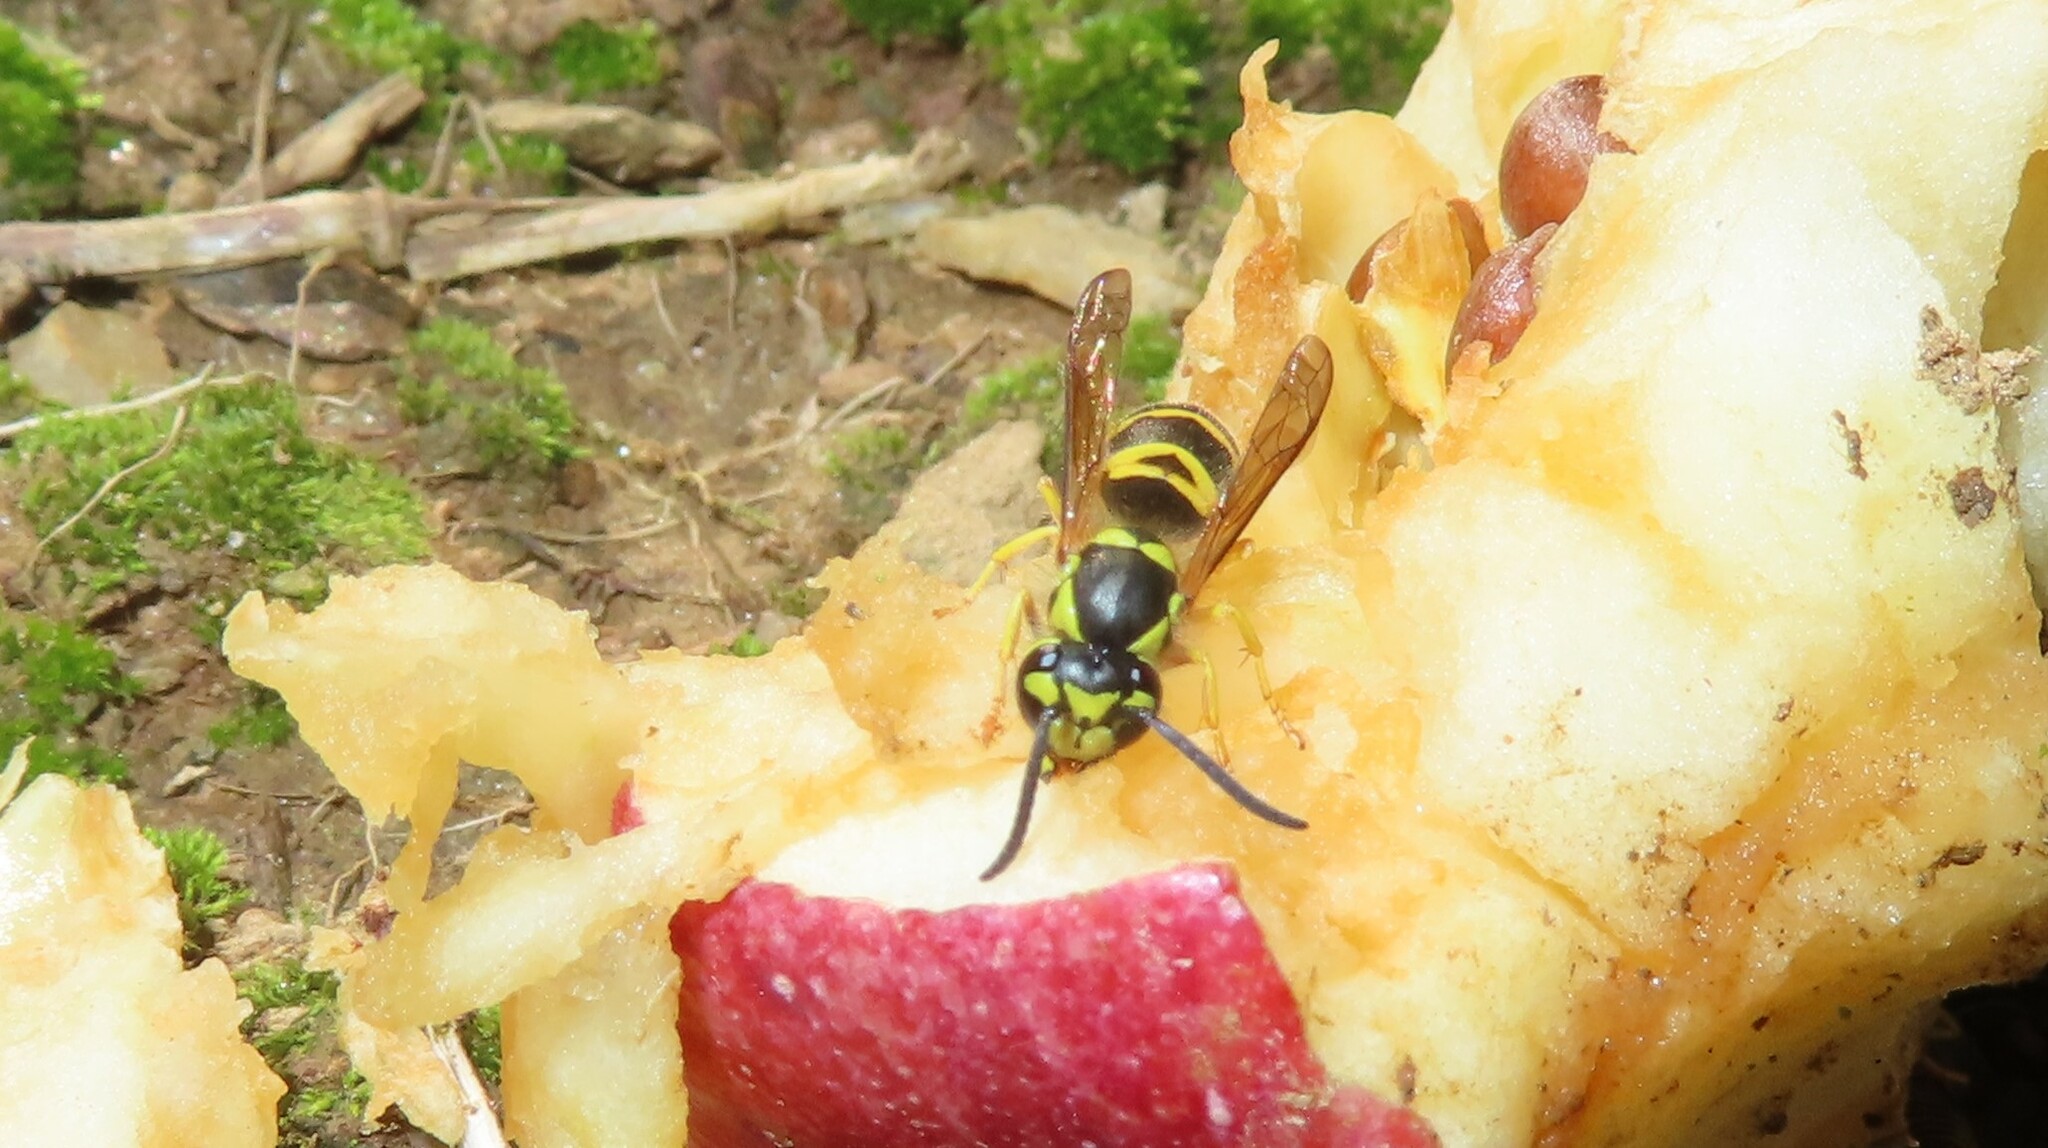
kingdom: Animalia
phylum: Arthropoda
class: Insecta
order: Hymenoptera
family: Vespidae
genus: Vespula
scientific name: Vespula maculifrons
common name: Eastern yellowjacket
